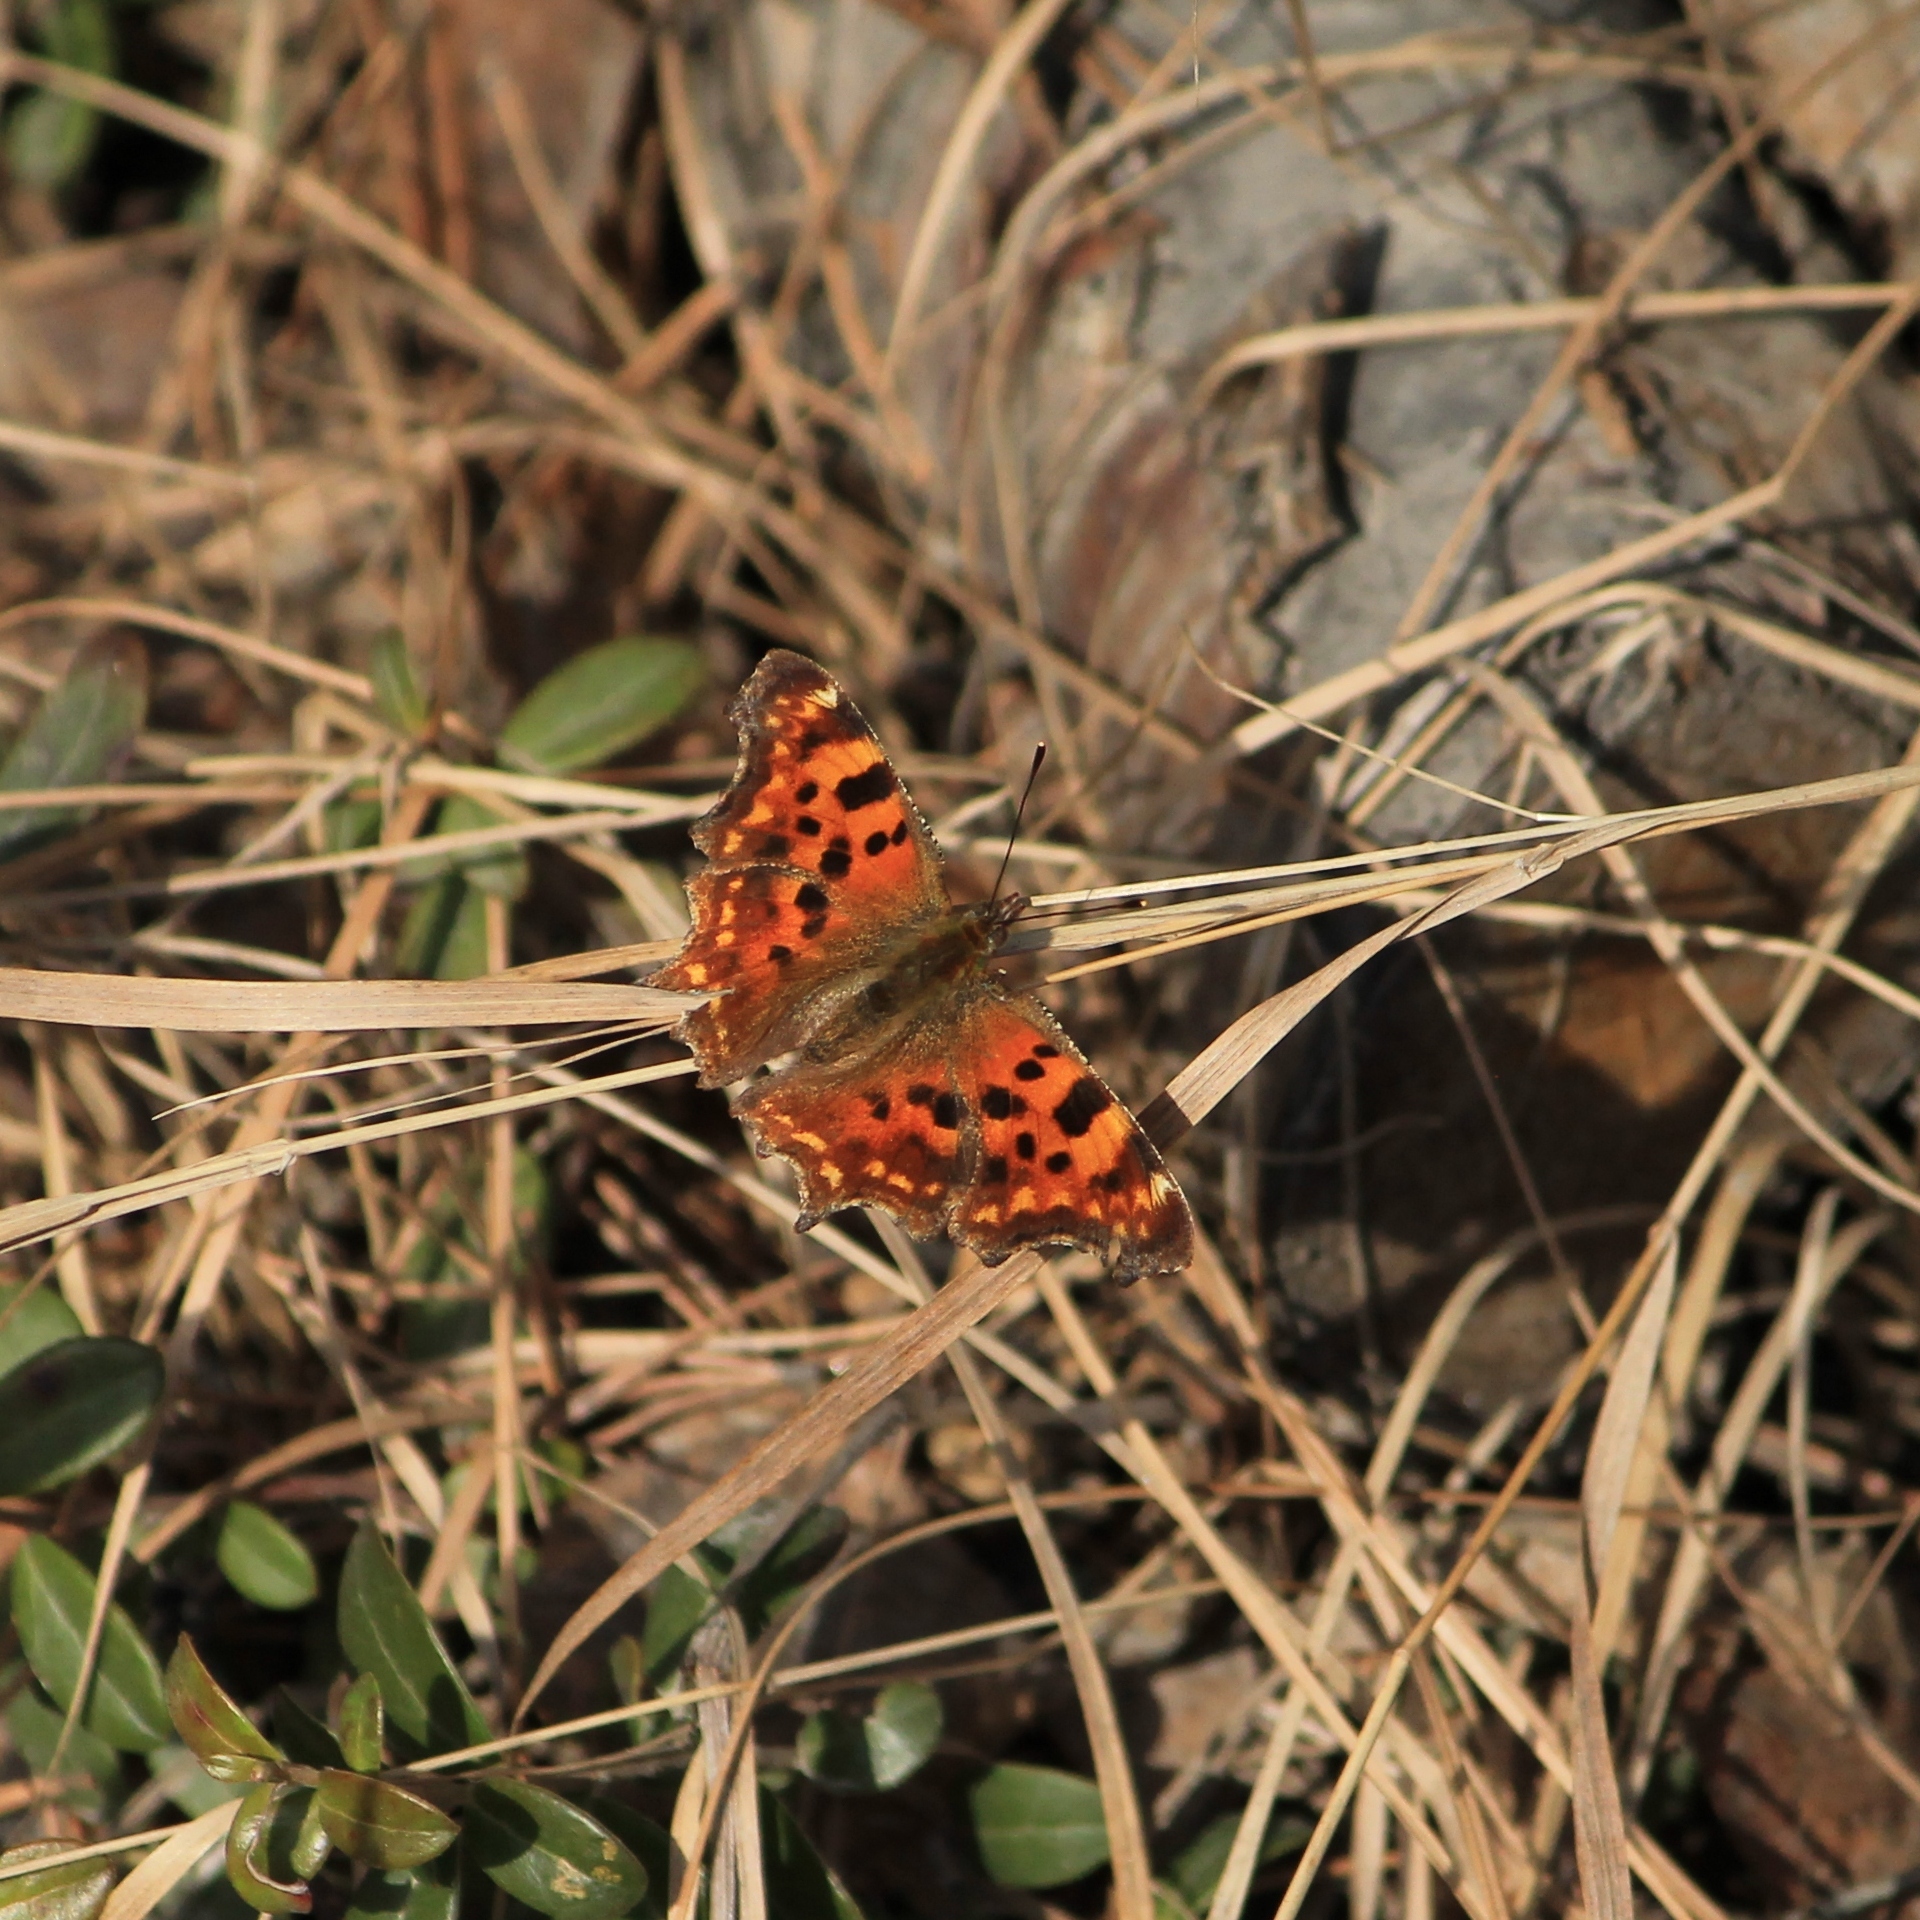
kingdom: Animalia
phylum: Arthropoda
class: Insecta
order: Lepidoptera
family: Nymphalidae
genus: Polygonia
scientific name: Polygonia c-album
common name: Comma
